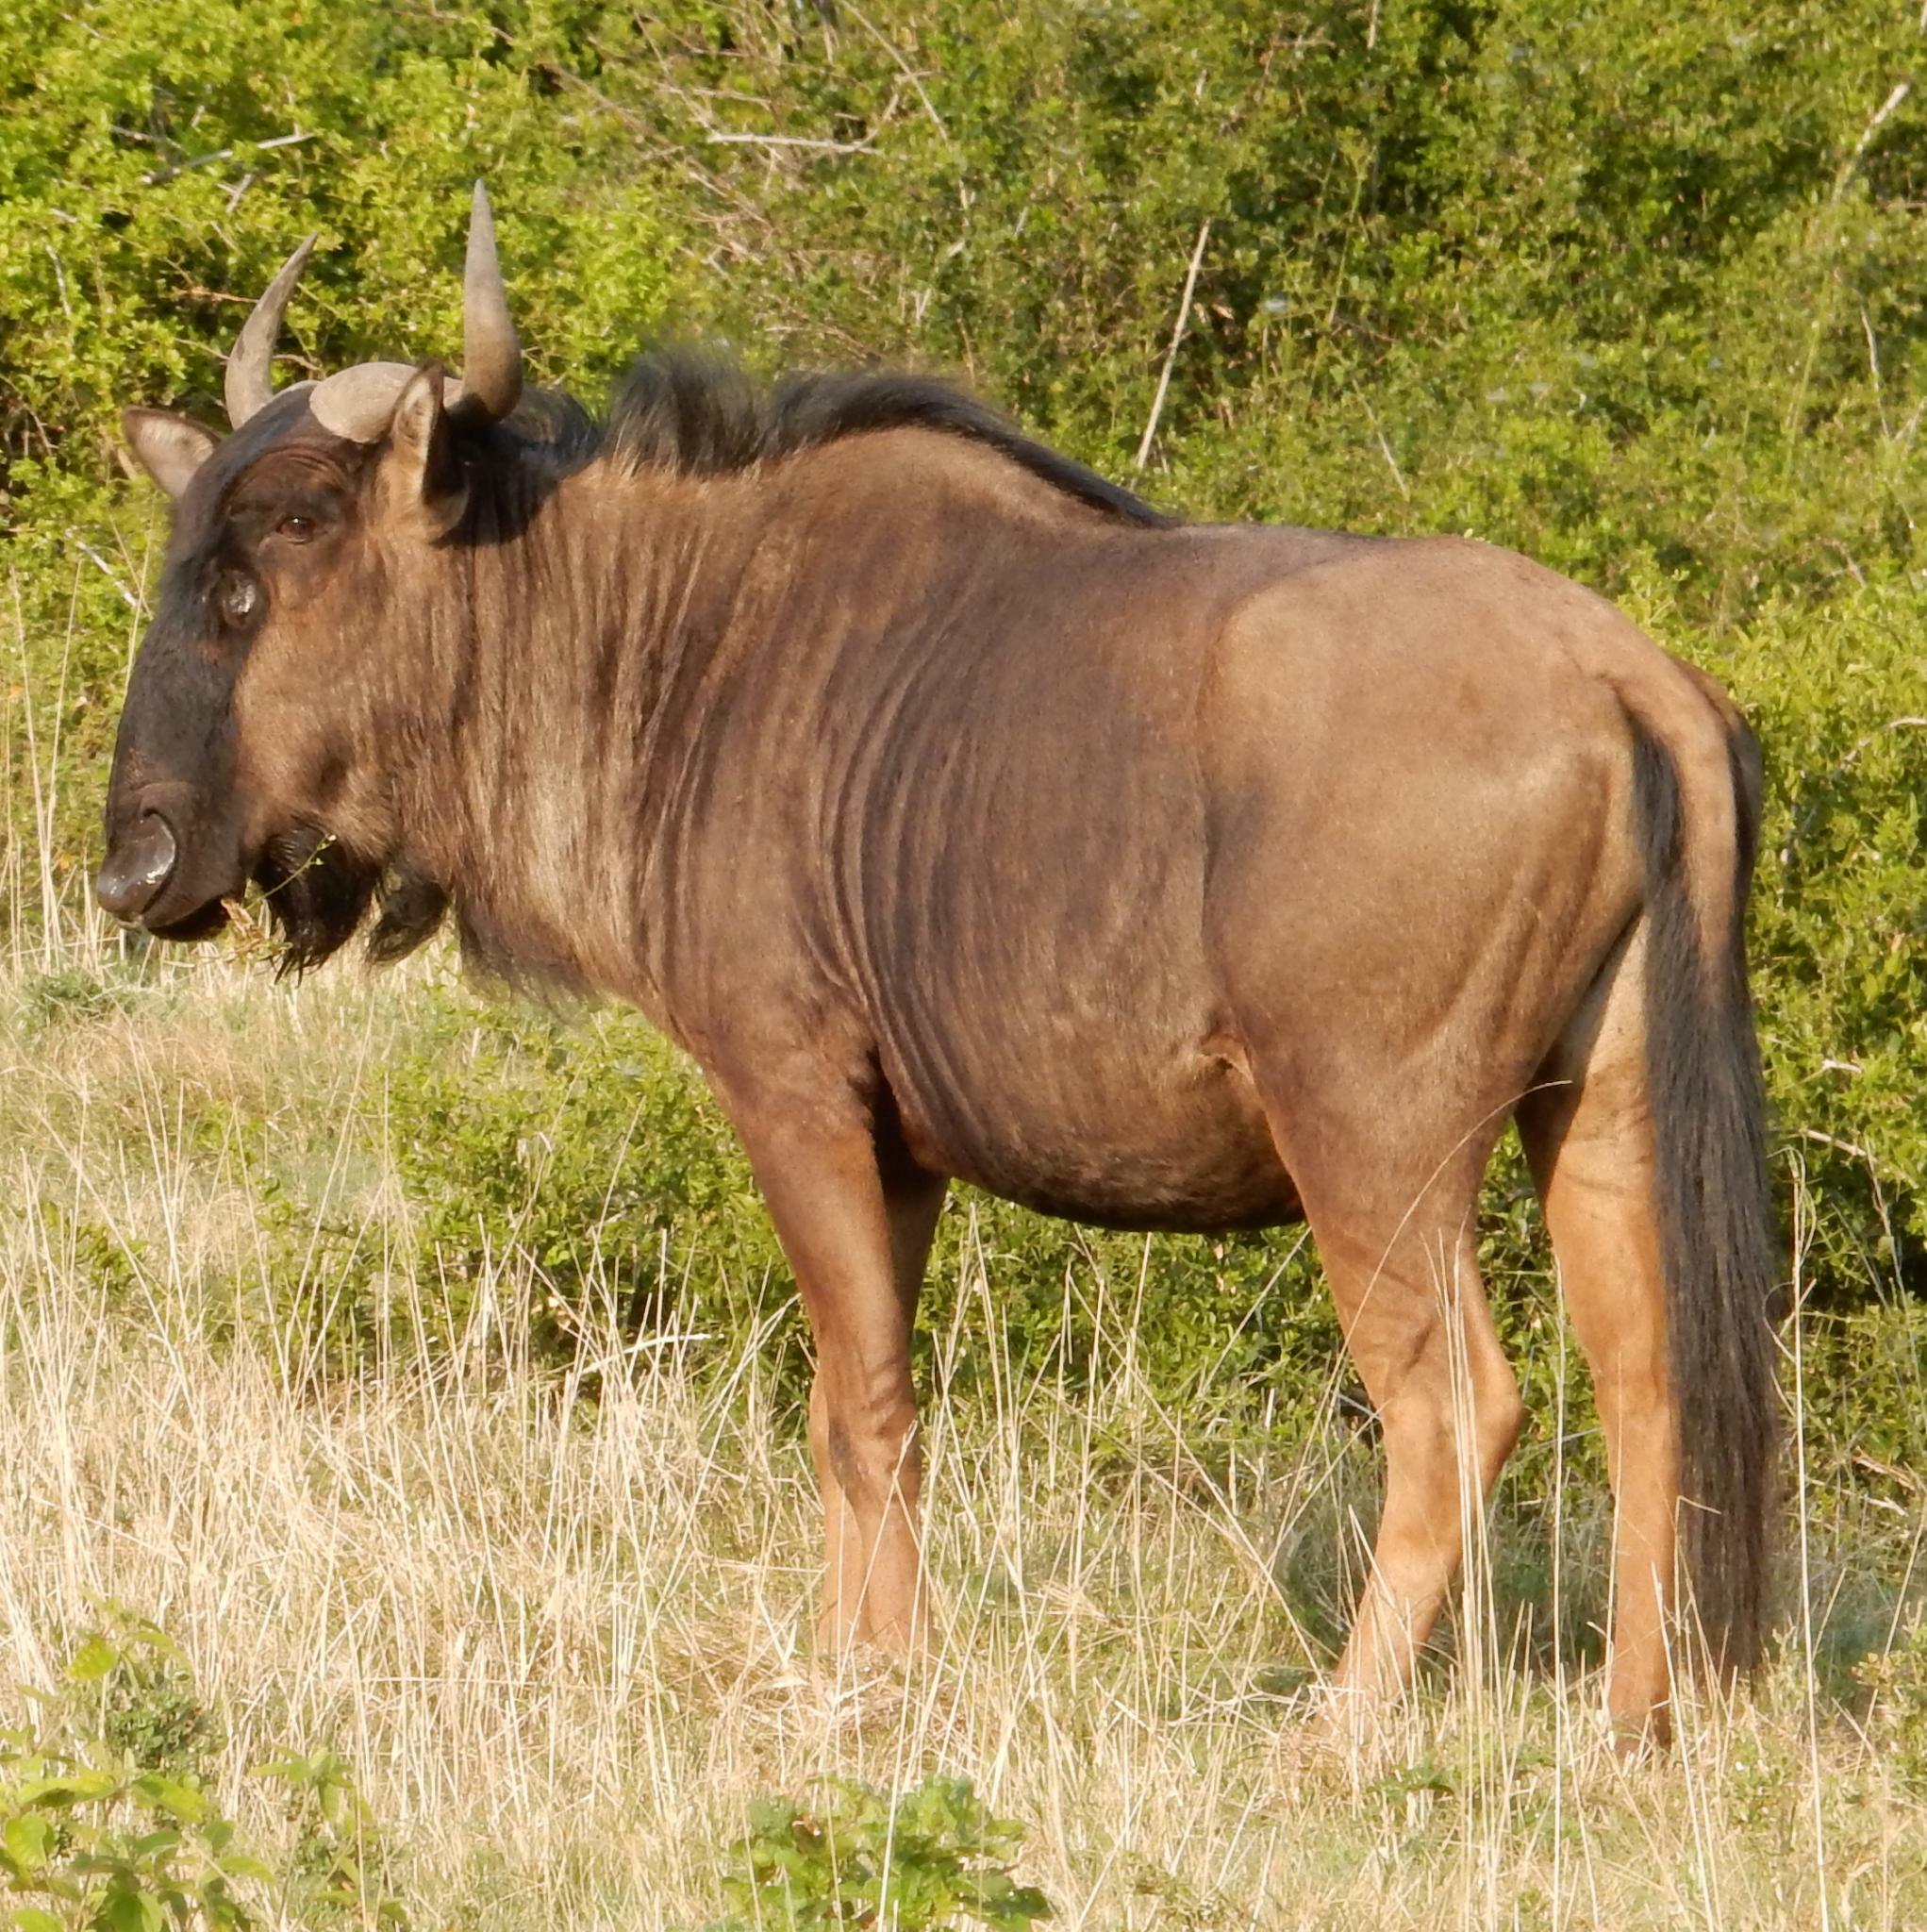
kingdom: Animalia
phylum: Chordata
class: Mammalia
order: Artiodactyla
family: Bovidae
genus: Connochaetes
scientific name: Connochaetes taurinus
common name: Blue wildebeest
